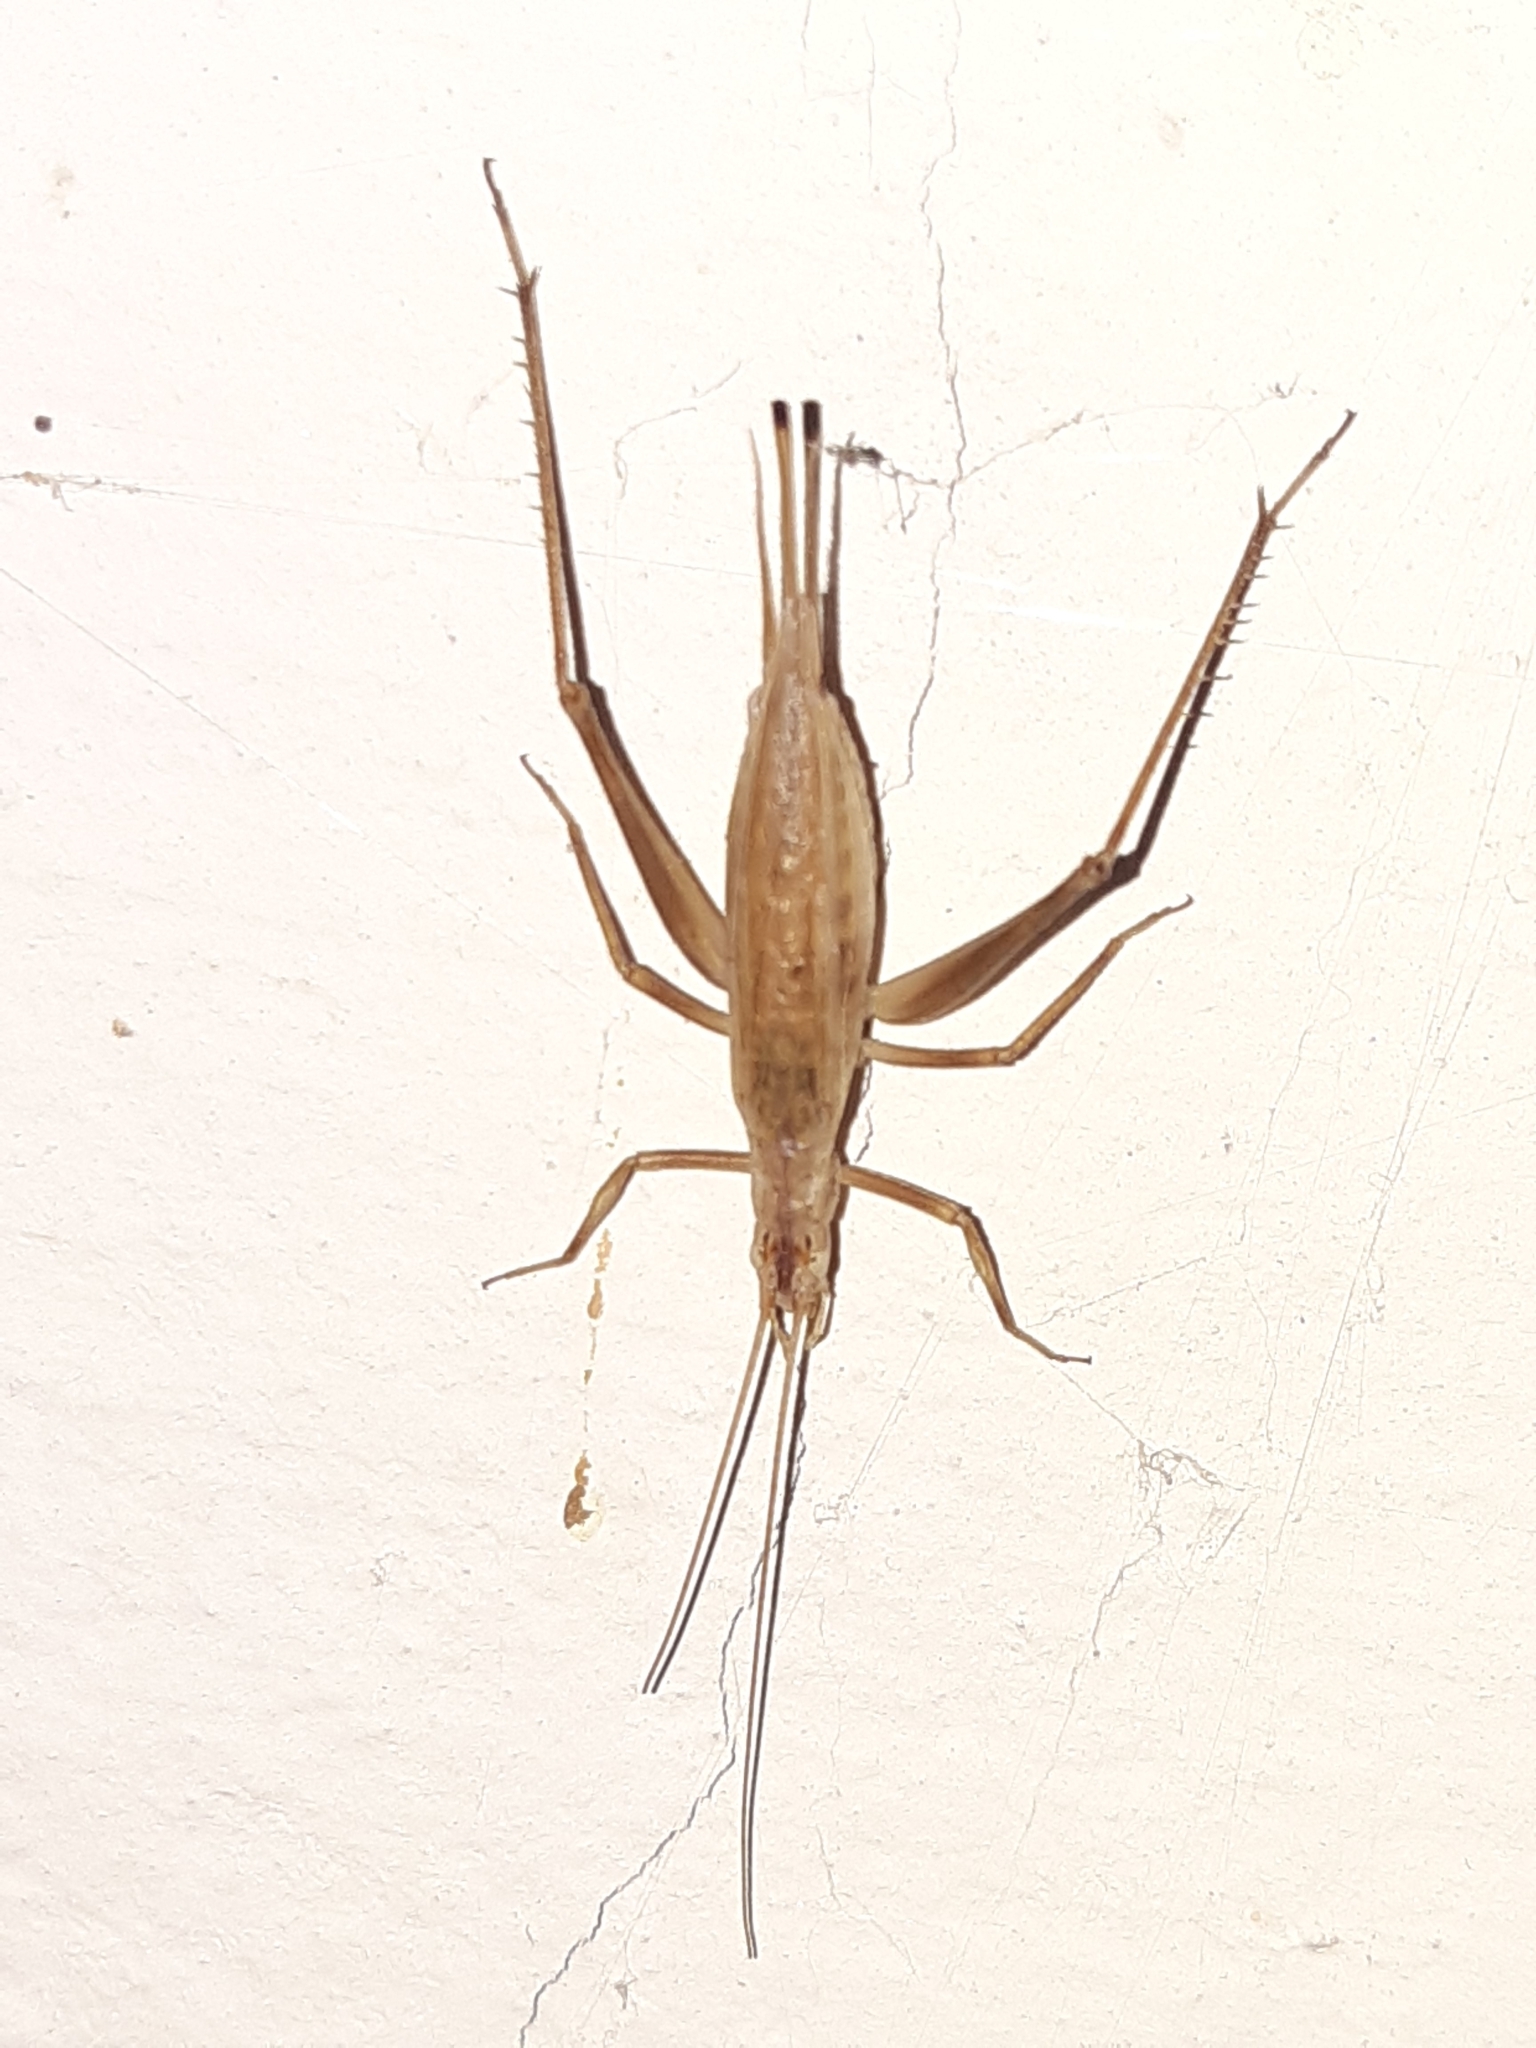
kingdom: Animalia
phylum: Arthropoda
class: Insecta
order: Orthoptera
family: Gryllidae
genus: Oecanthus
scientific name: Oecanthus pellucens
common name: Tree-cricket
